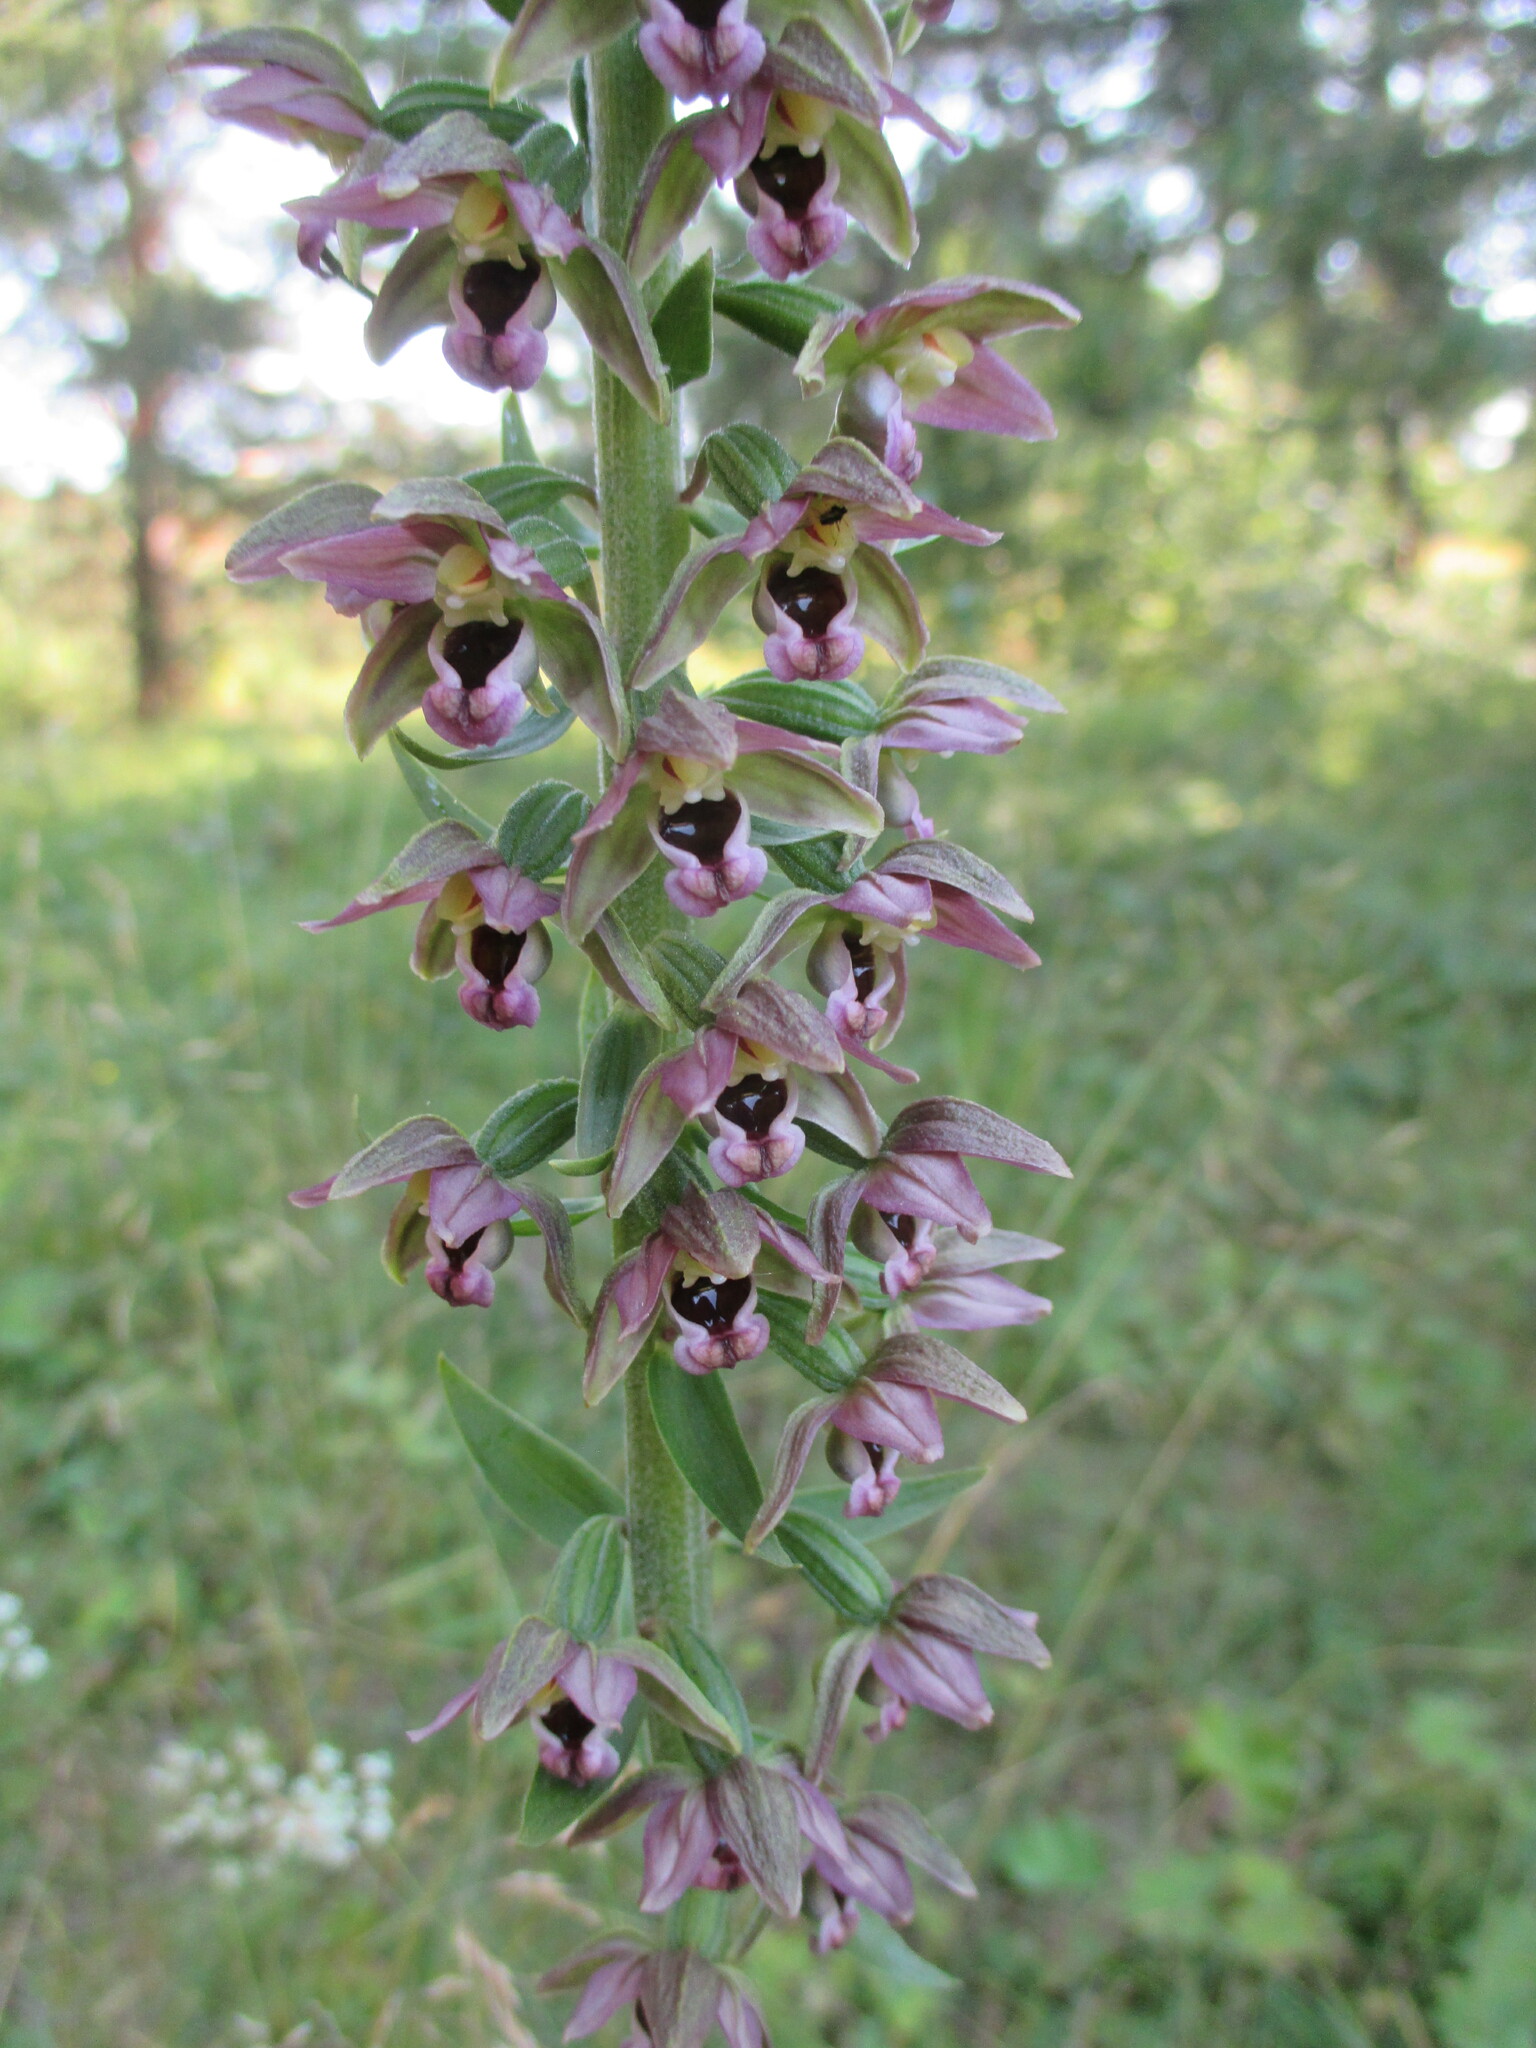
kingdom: Plantae
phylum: Tracheophyta
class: Liliopsida
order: Asparagales
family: Orchidaceae
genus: Epipactis
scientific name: Epipactis helleborine
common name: Broad-leaved helleborine
